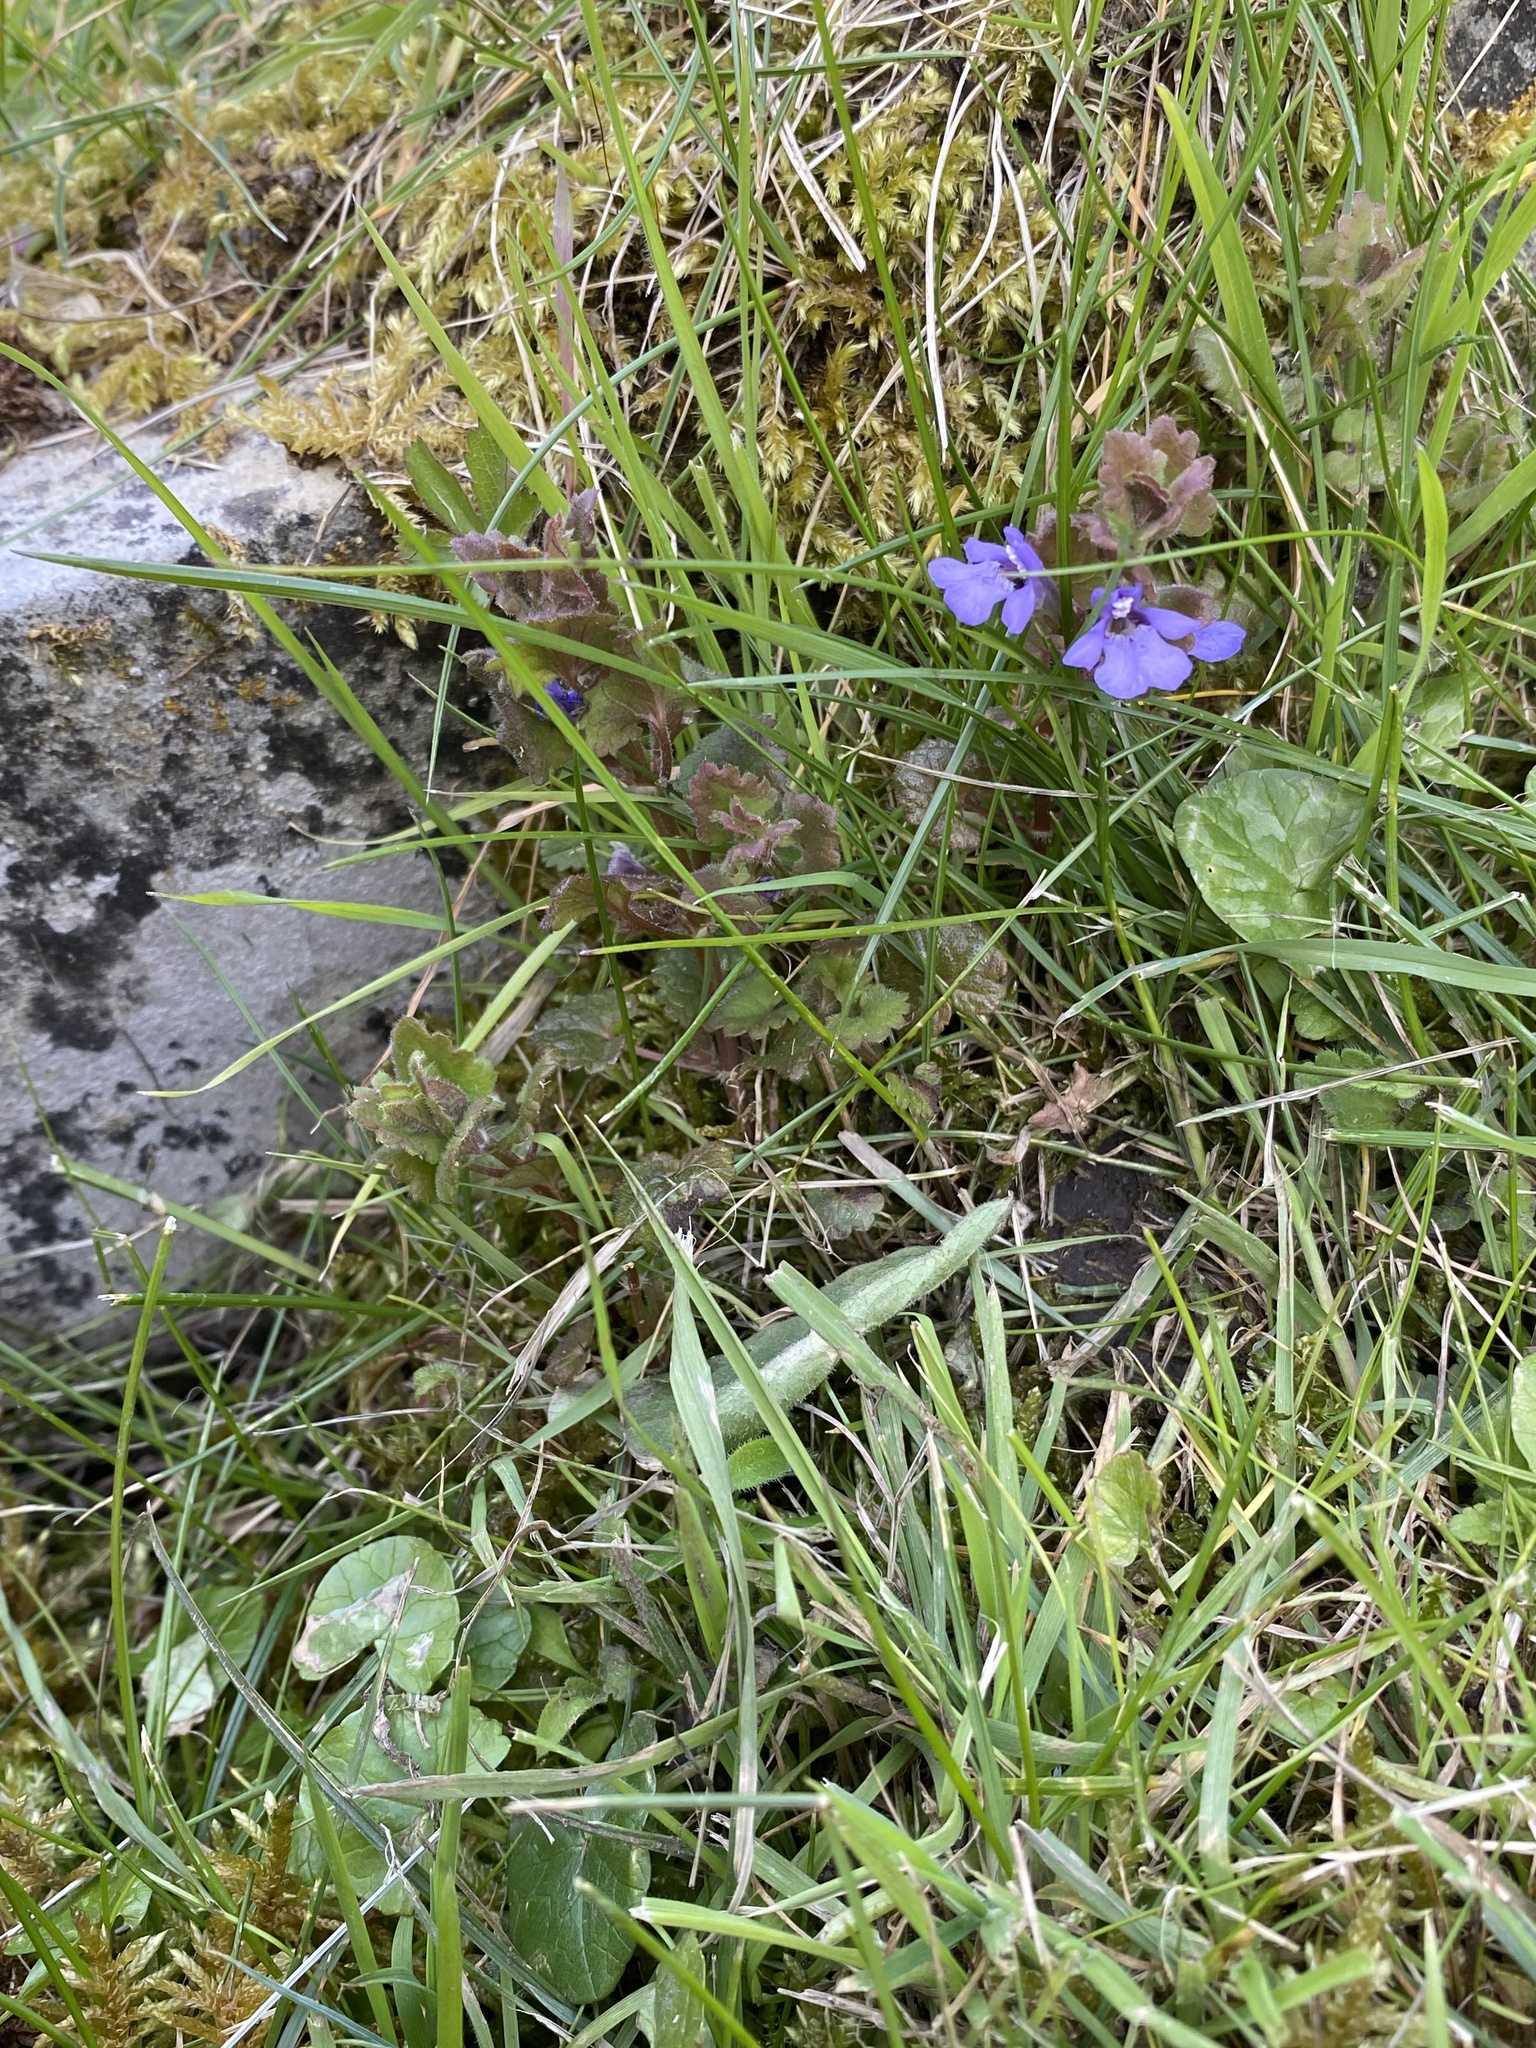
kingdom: Plantae
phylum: Tracheophyta
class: Magnoliopsida
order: Lamiales
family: Lamiaceae
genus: Glechoma
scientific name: Glechoma hederacea
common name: Ground ivy
